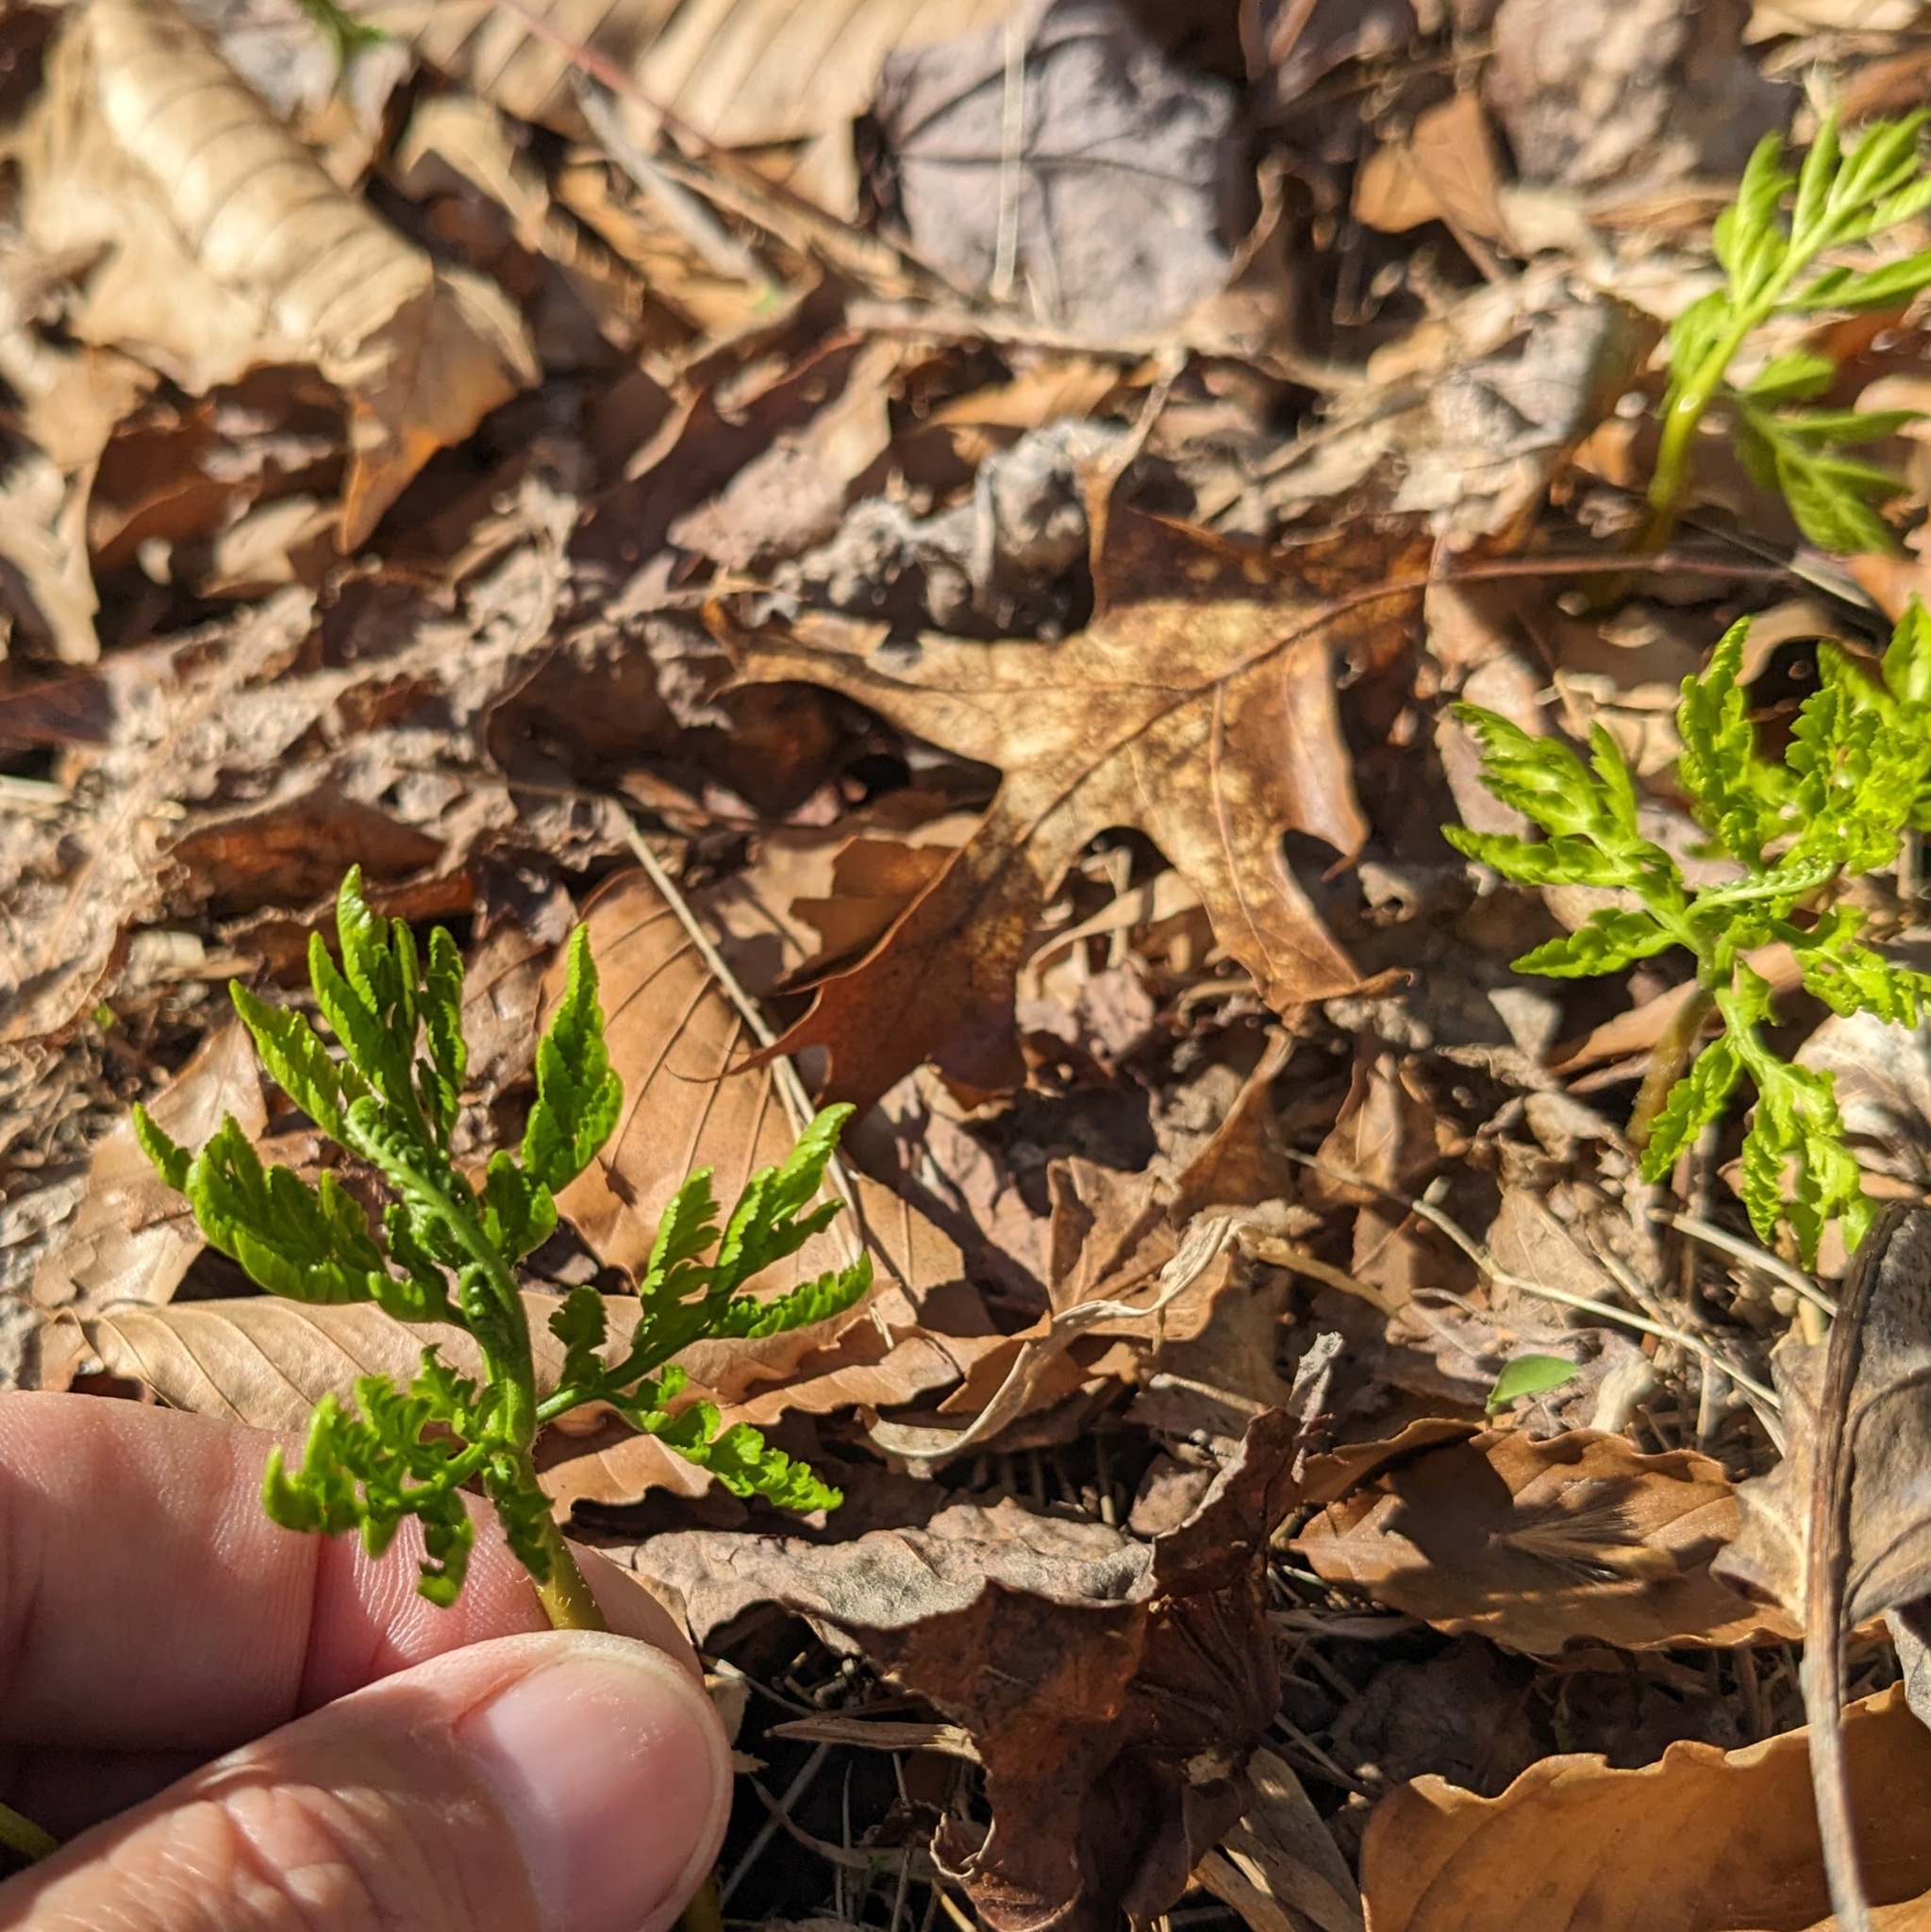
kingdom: Plantae
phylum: Tracheophyta
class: Polypodiopsida
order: Ophioglossales
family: Ophioglossaceae
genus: Botrypus
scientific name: Botrypus virginianus
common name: Common grapefern
